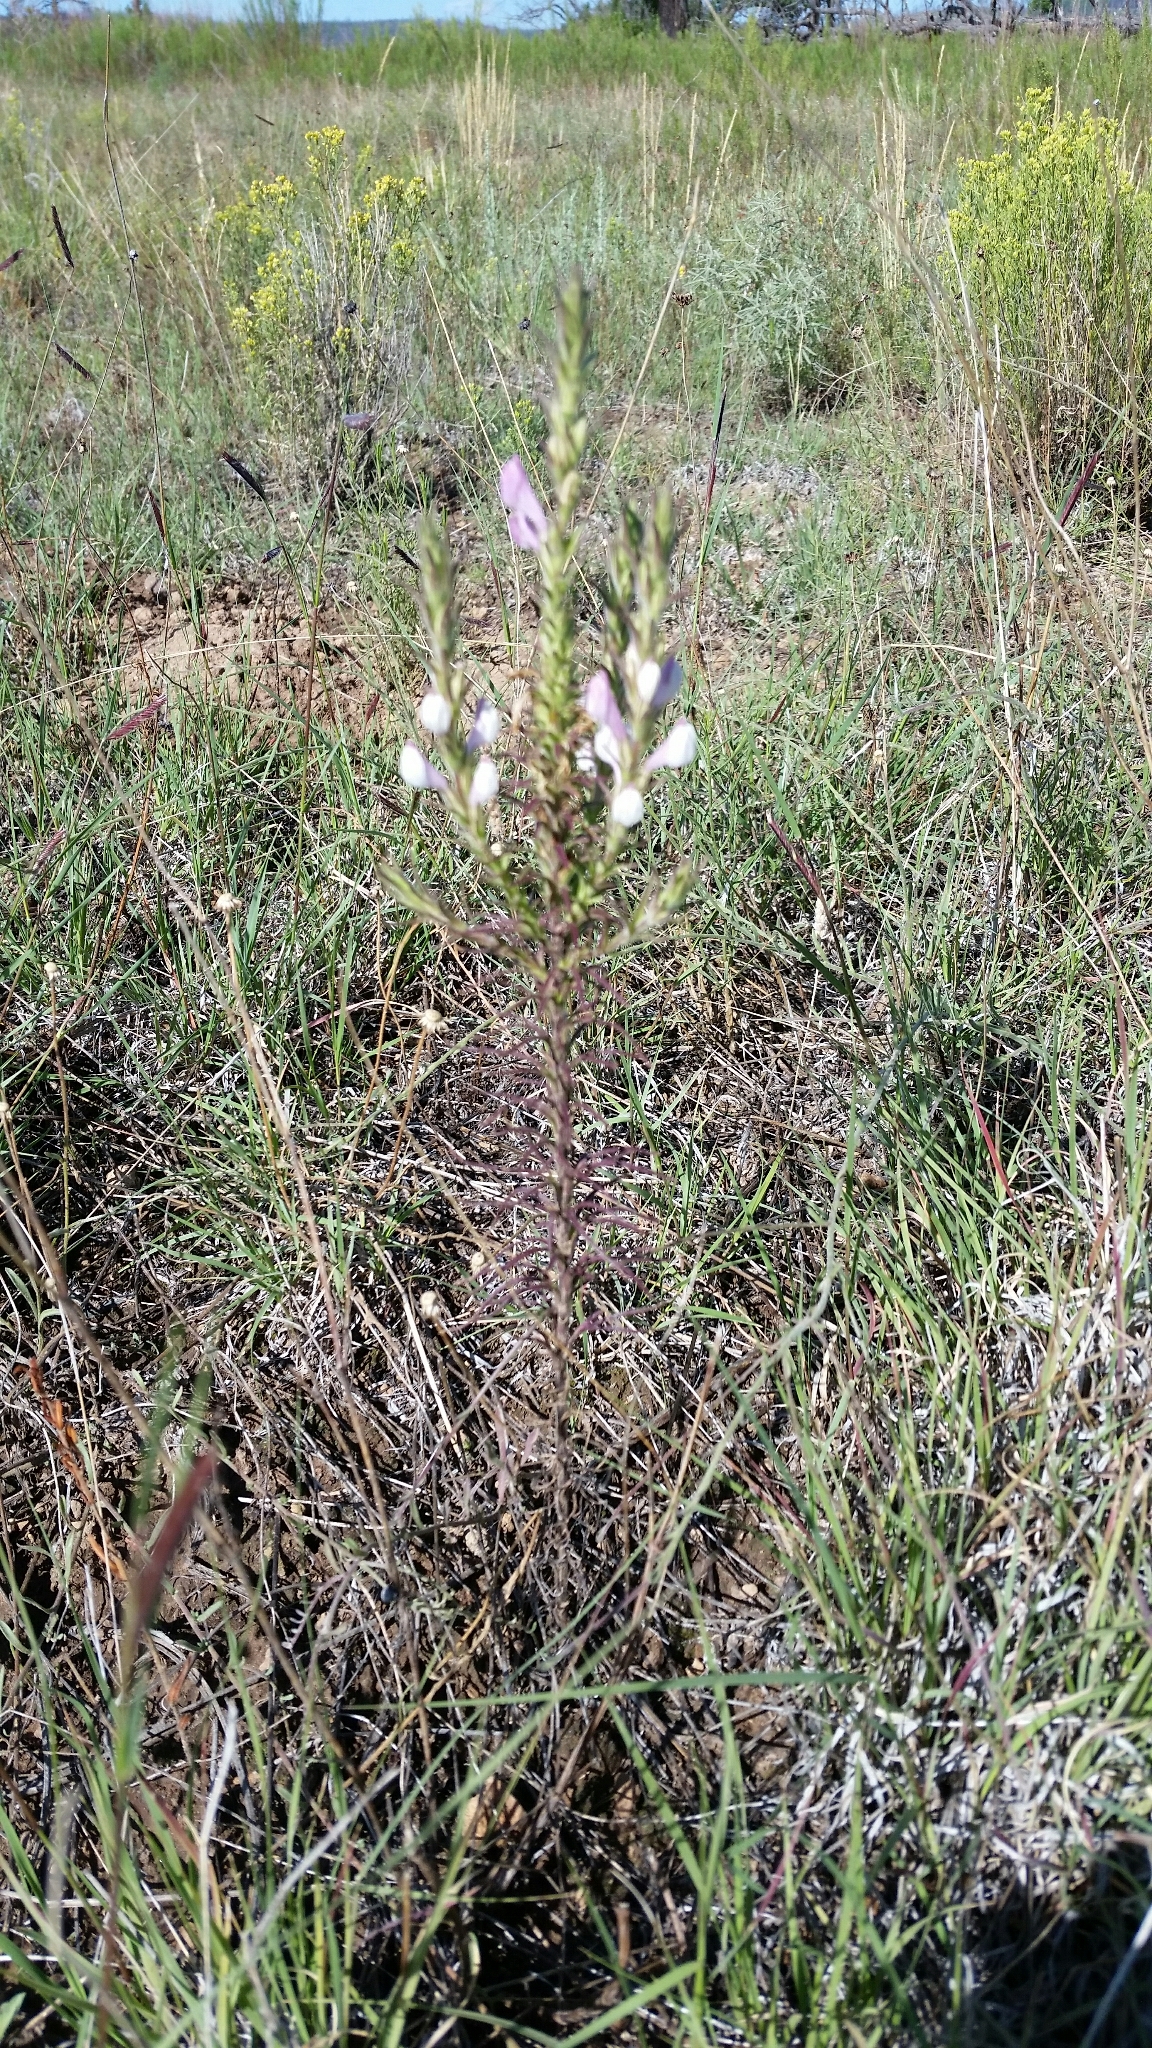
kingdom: Plantae
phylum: Tracheophyta
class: Magnoliopsida
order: Lamiales
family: Orobanchaceae
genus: Orthocarpus
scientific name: Orthocarpus purpureoalbus
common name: Violet owl-clover
